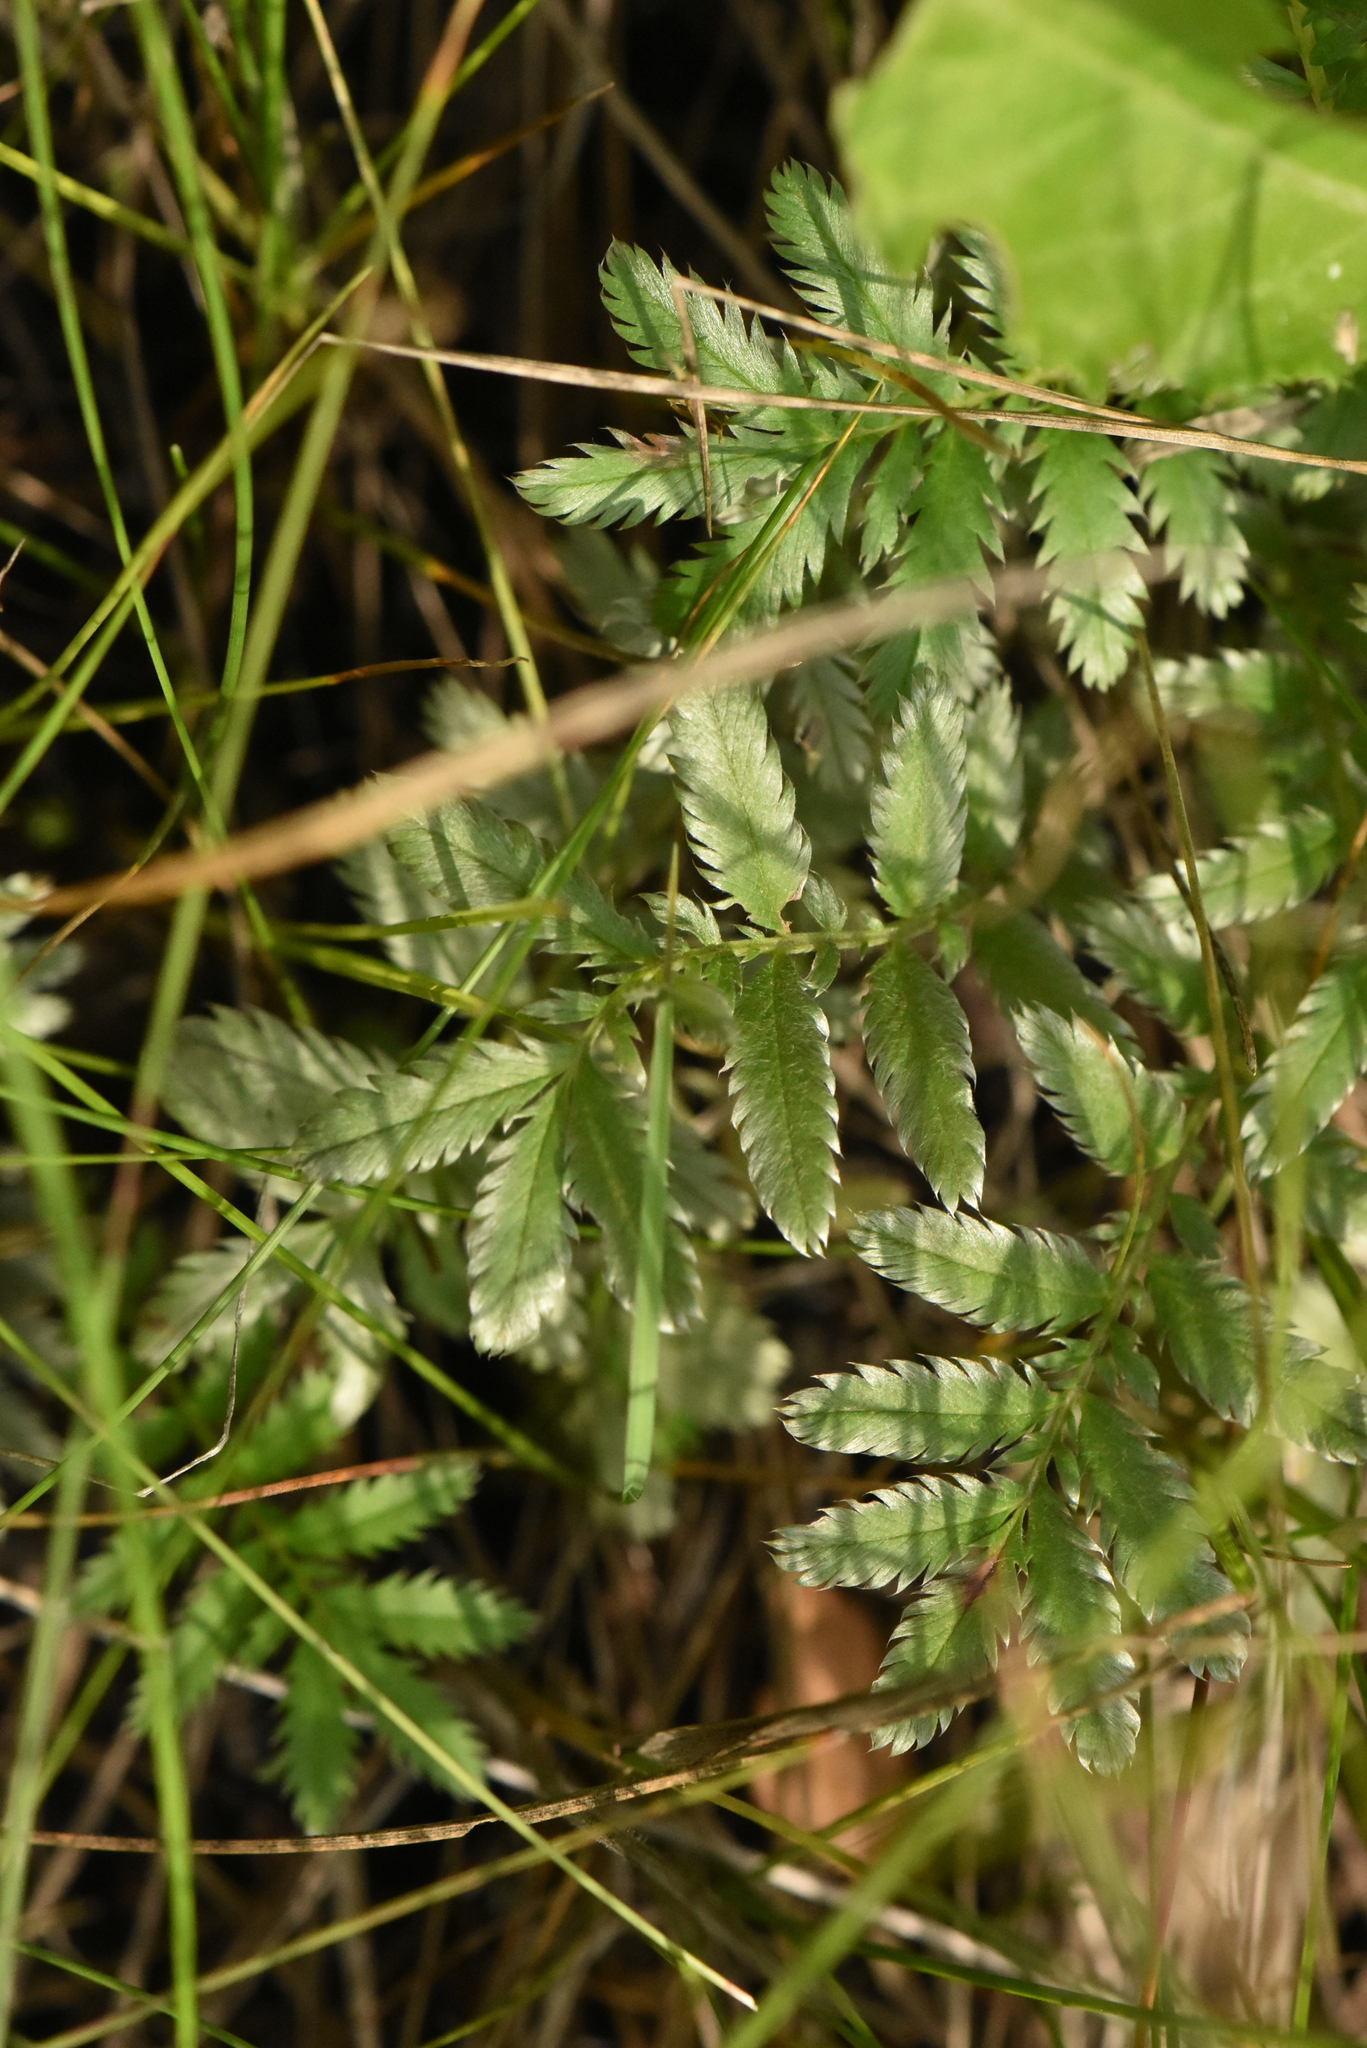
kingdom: Plantae
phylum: Tracheophyta
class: Magnoliopsida
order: Rosales
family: Rosaceae
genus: Argentina
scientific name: Argentina anserina
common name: Common silverweed
